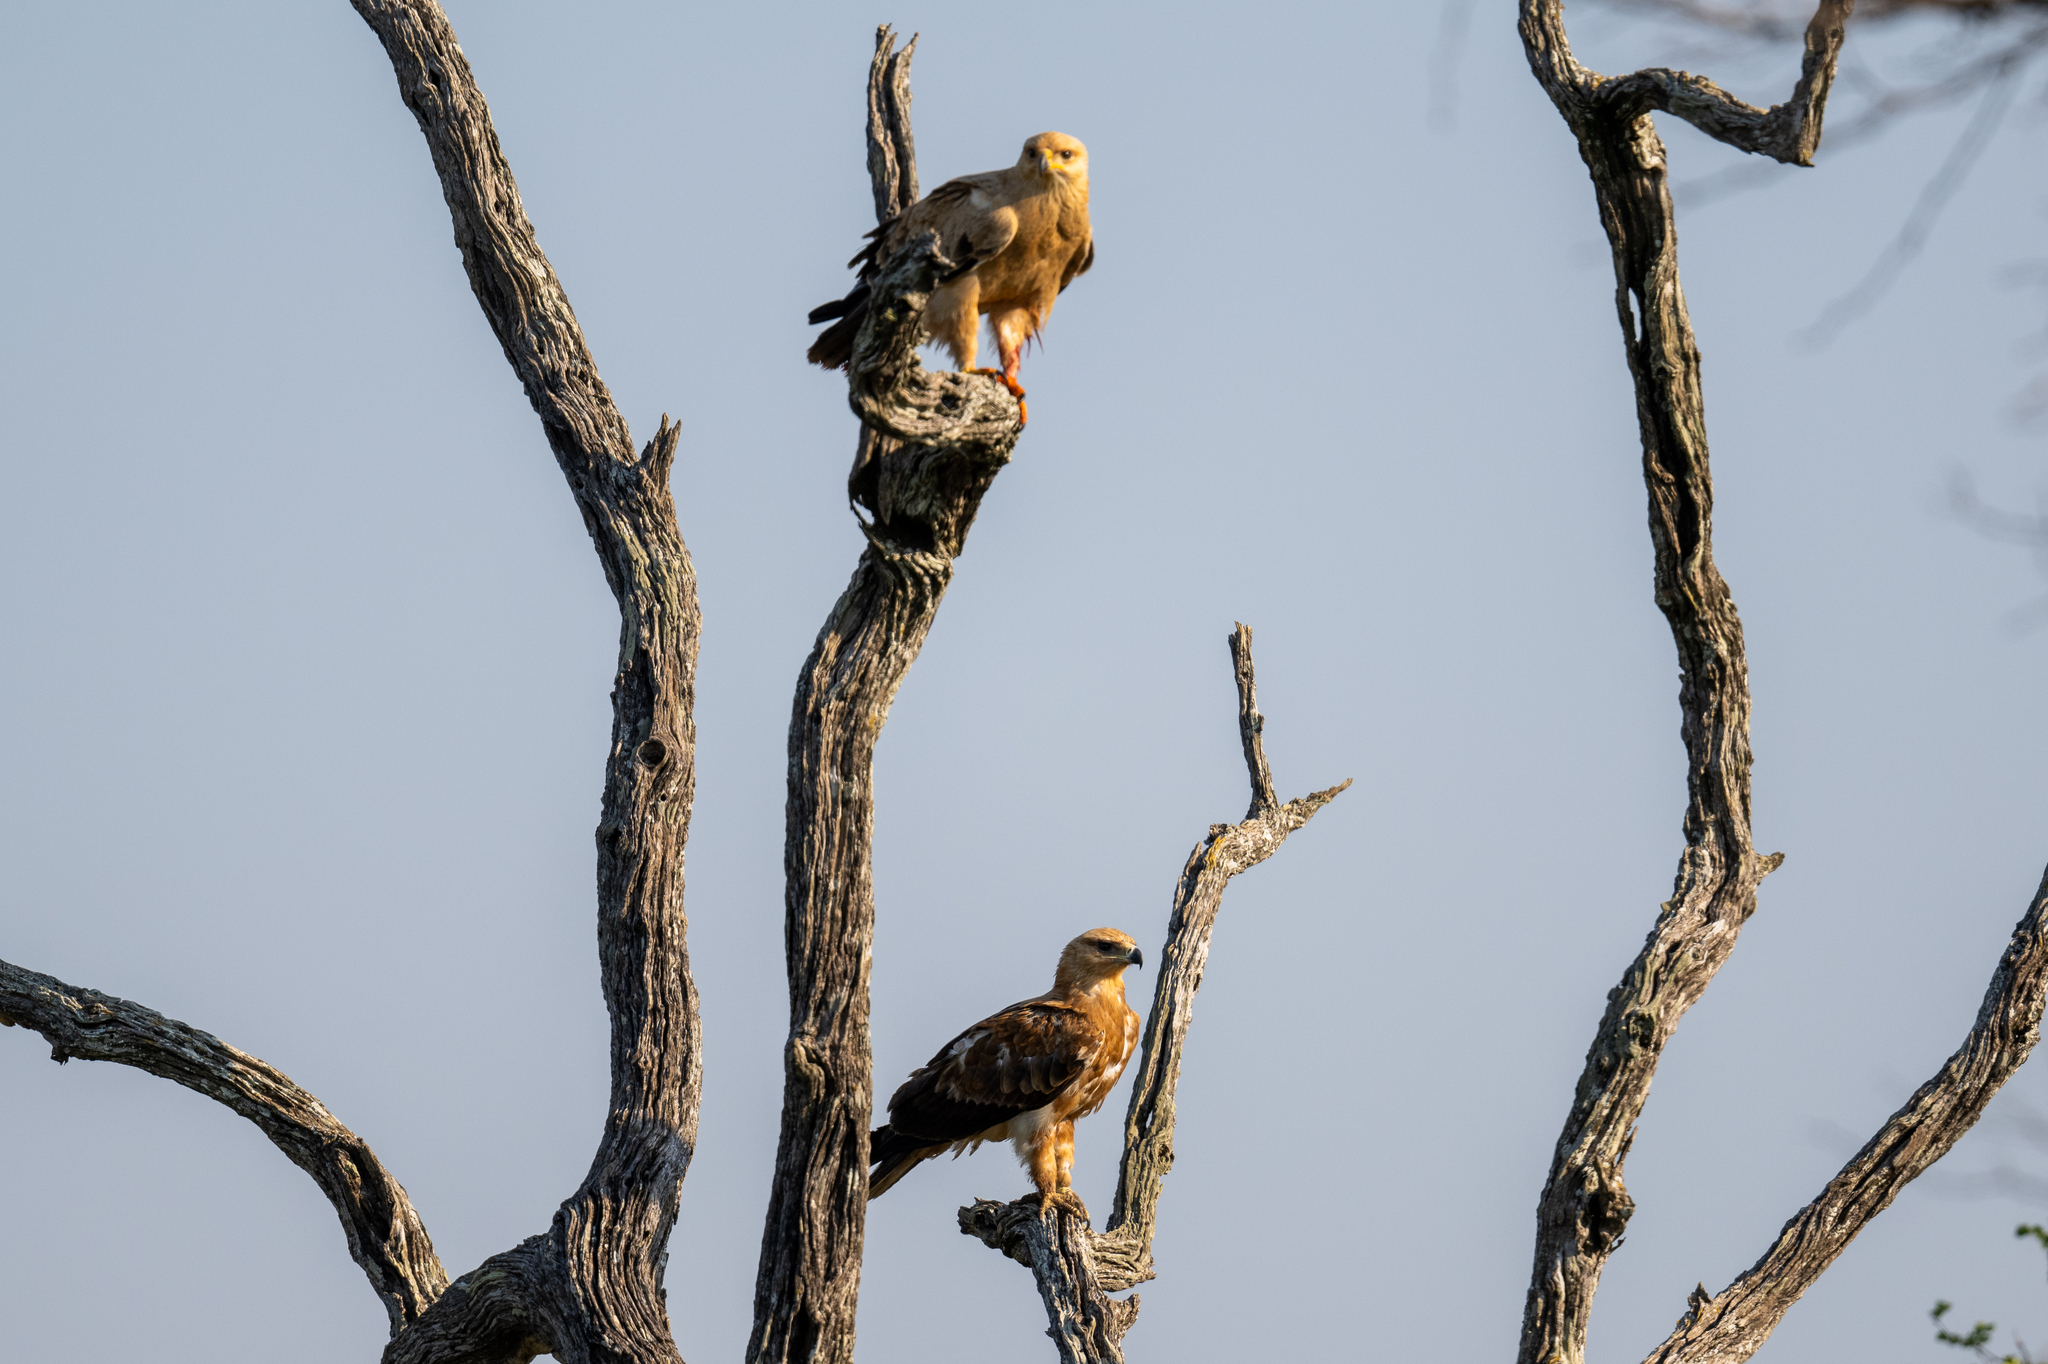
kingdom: Animalia
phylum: Chordata
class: Aves
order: Accipitriformes
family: Accipitridae
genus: Aquila
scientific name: Aquila rapax
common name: Tawny eagle
